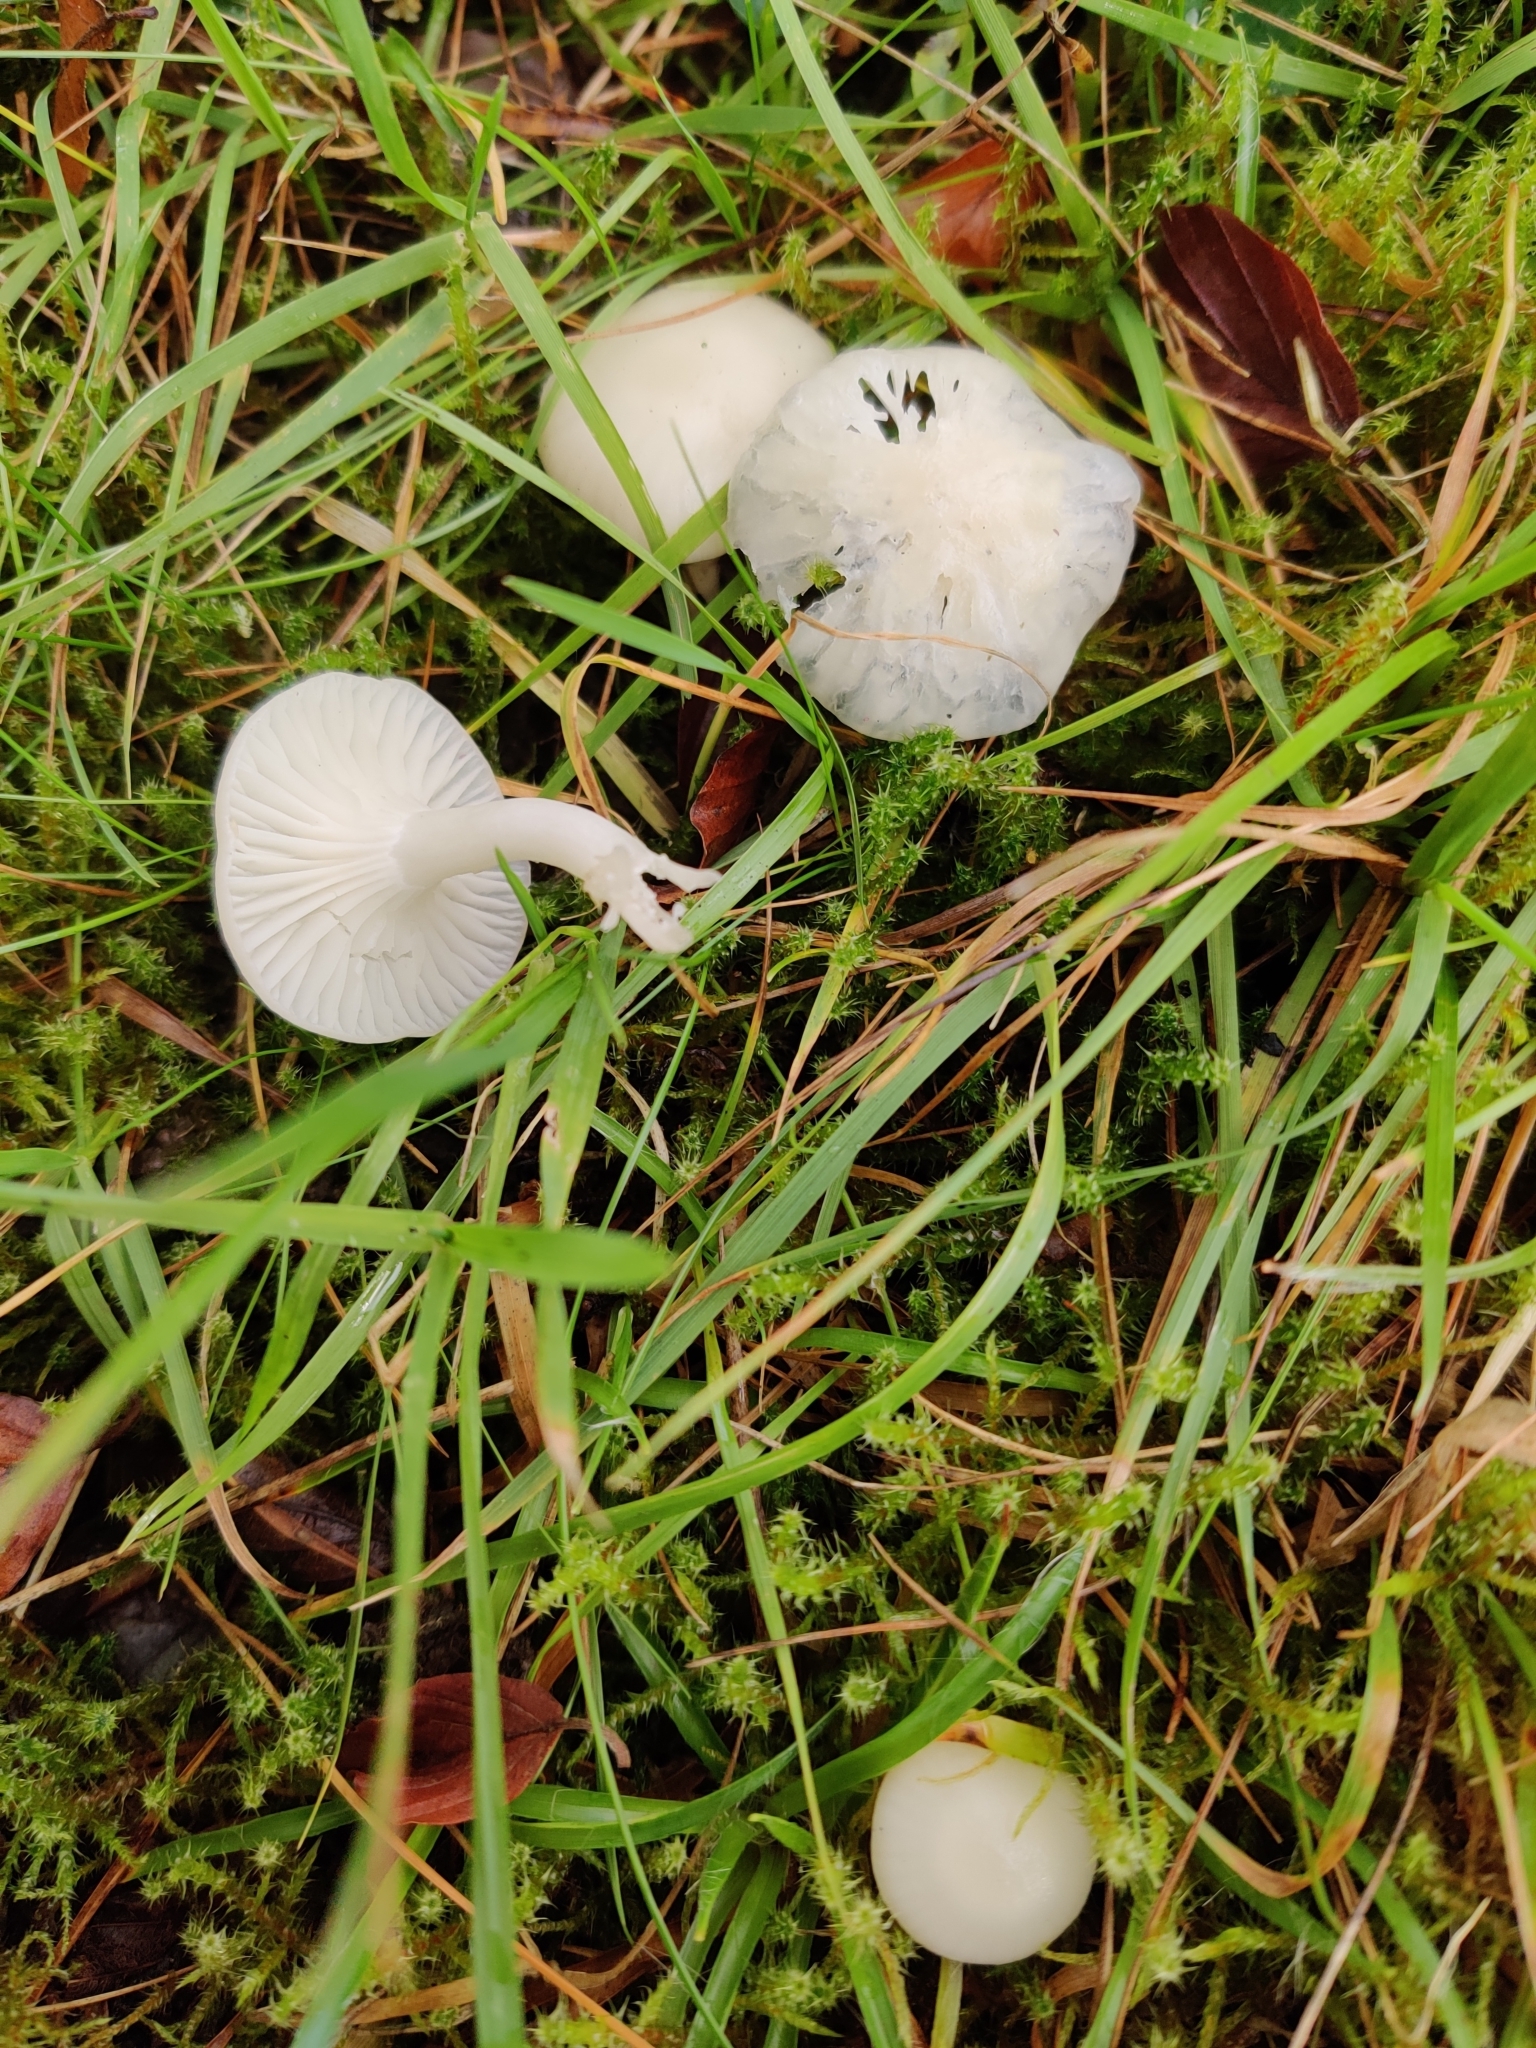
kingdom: Fungi
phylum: Basidiomycota
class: Agaricomycetes
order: Agaricales
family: Hygrophoraceae
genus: Cuphophyllus
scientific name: Cuphophyllus virgineus
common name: Snowy waxcap
